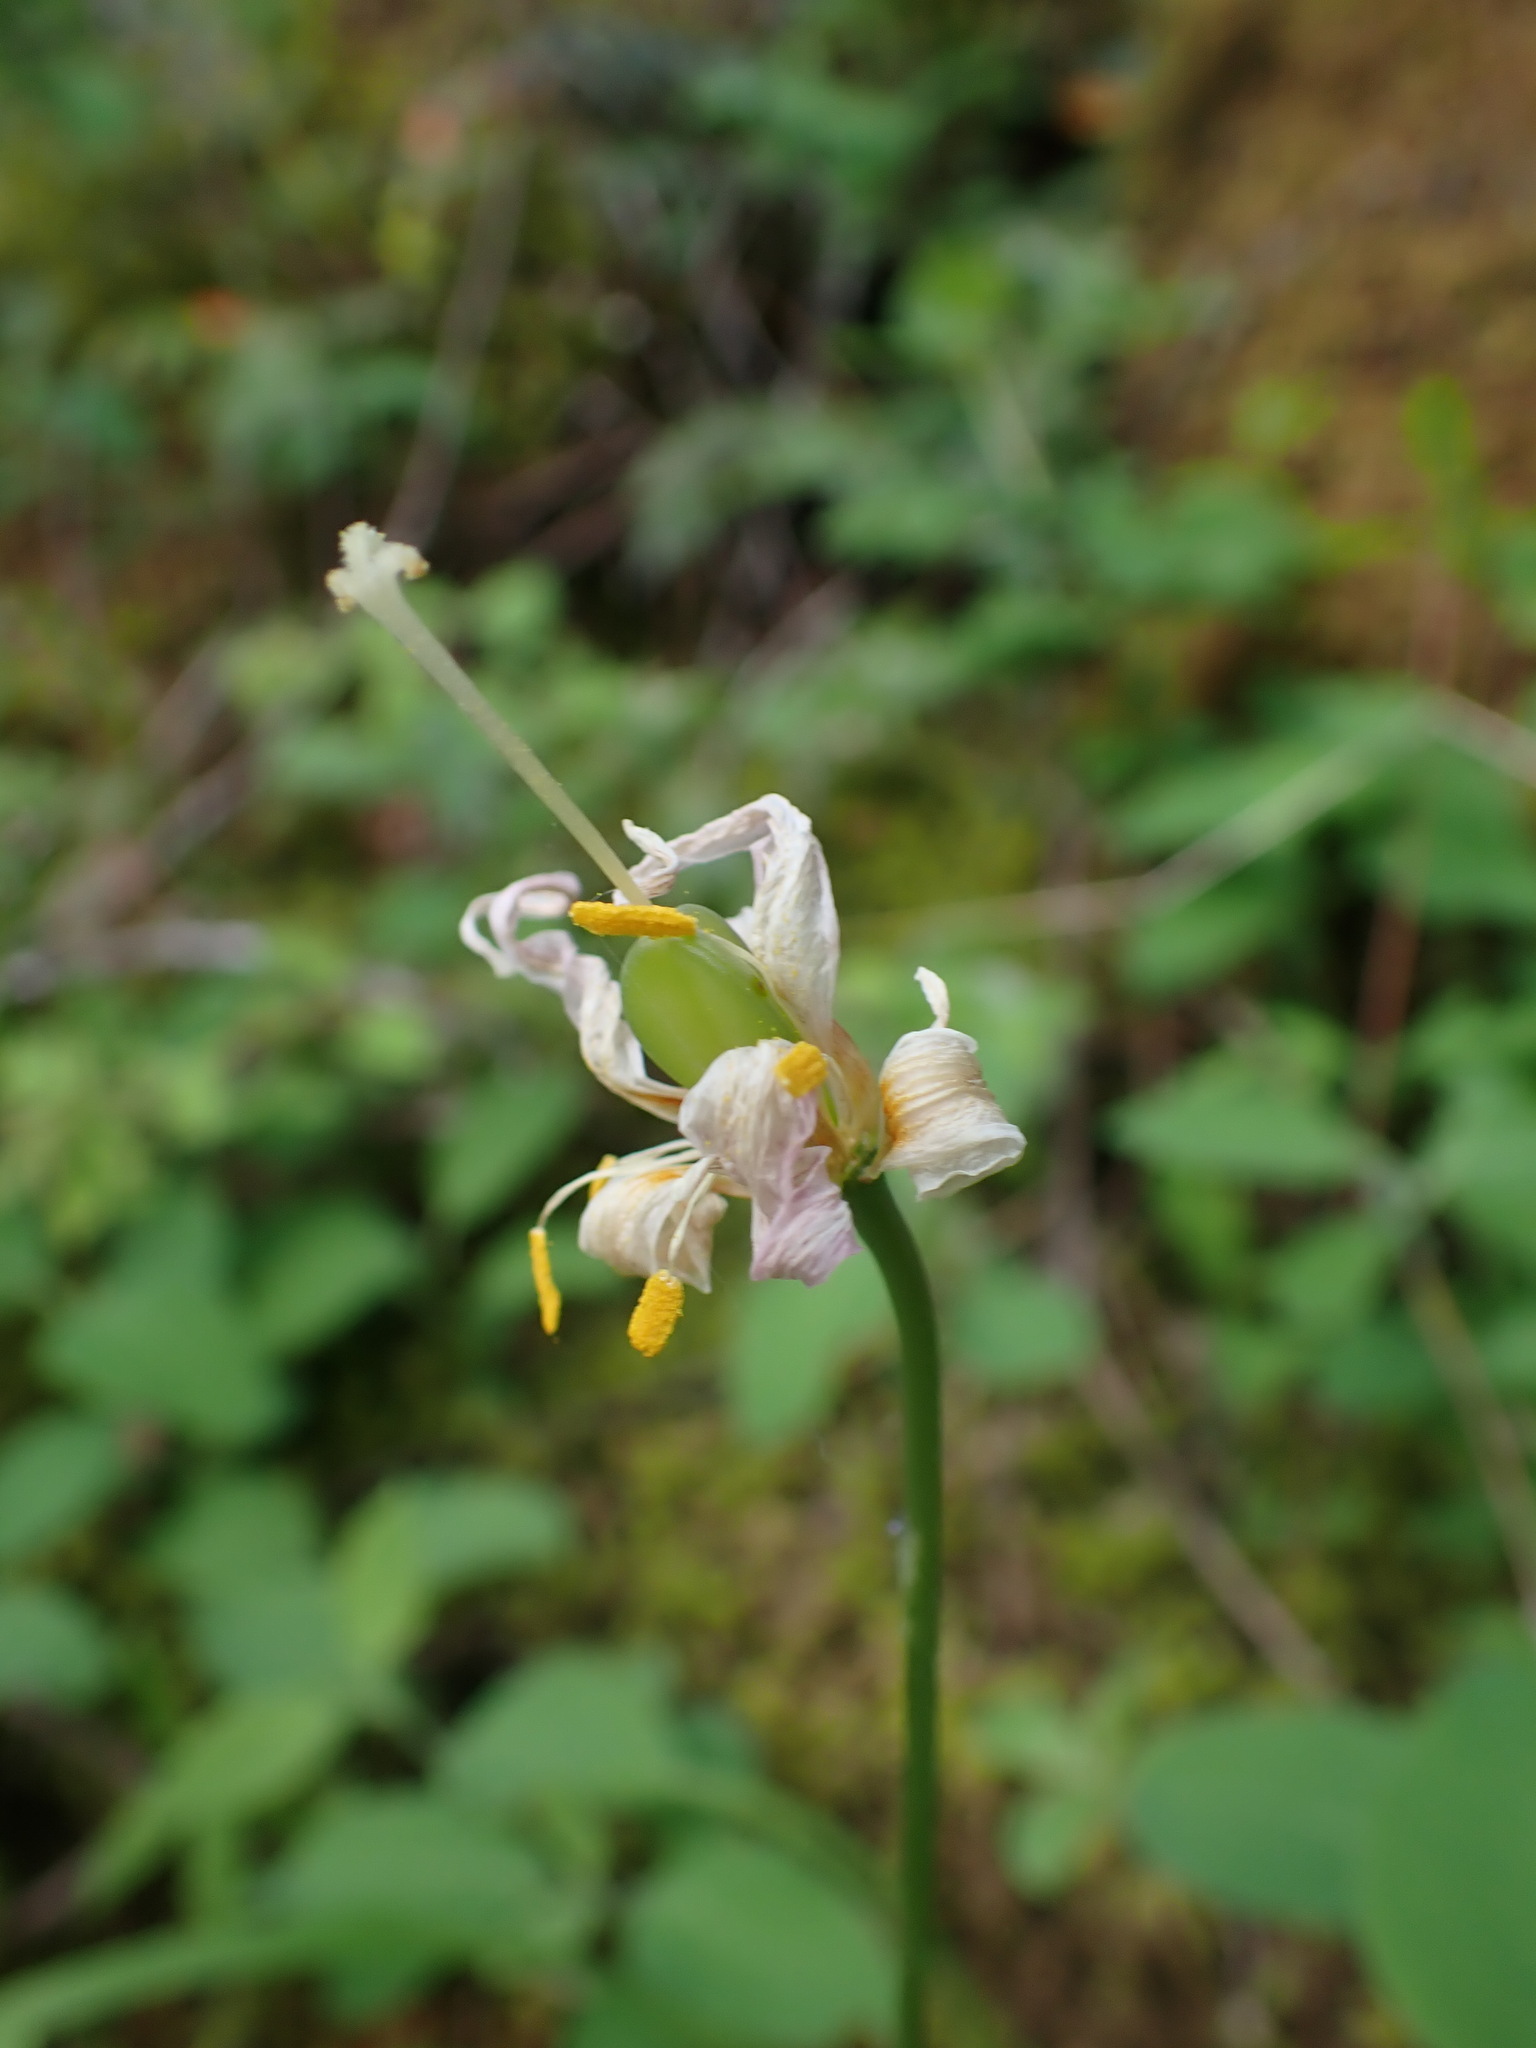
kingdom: Plantae
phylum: Tracheophyta
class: Liliopsida
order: Liliales
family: Liliaceae
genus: Erythronium
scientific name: Erythronium oregonum
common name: Giant adder's-tongue
